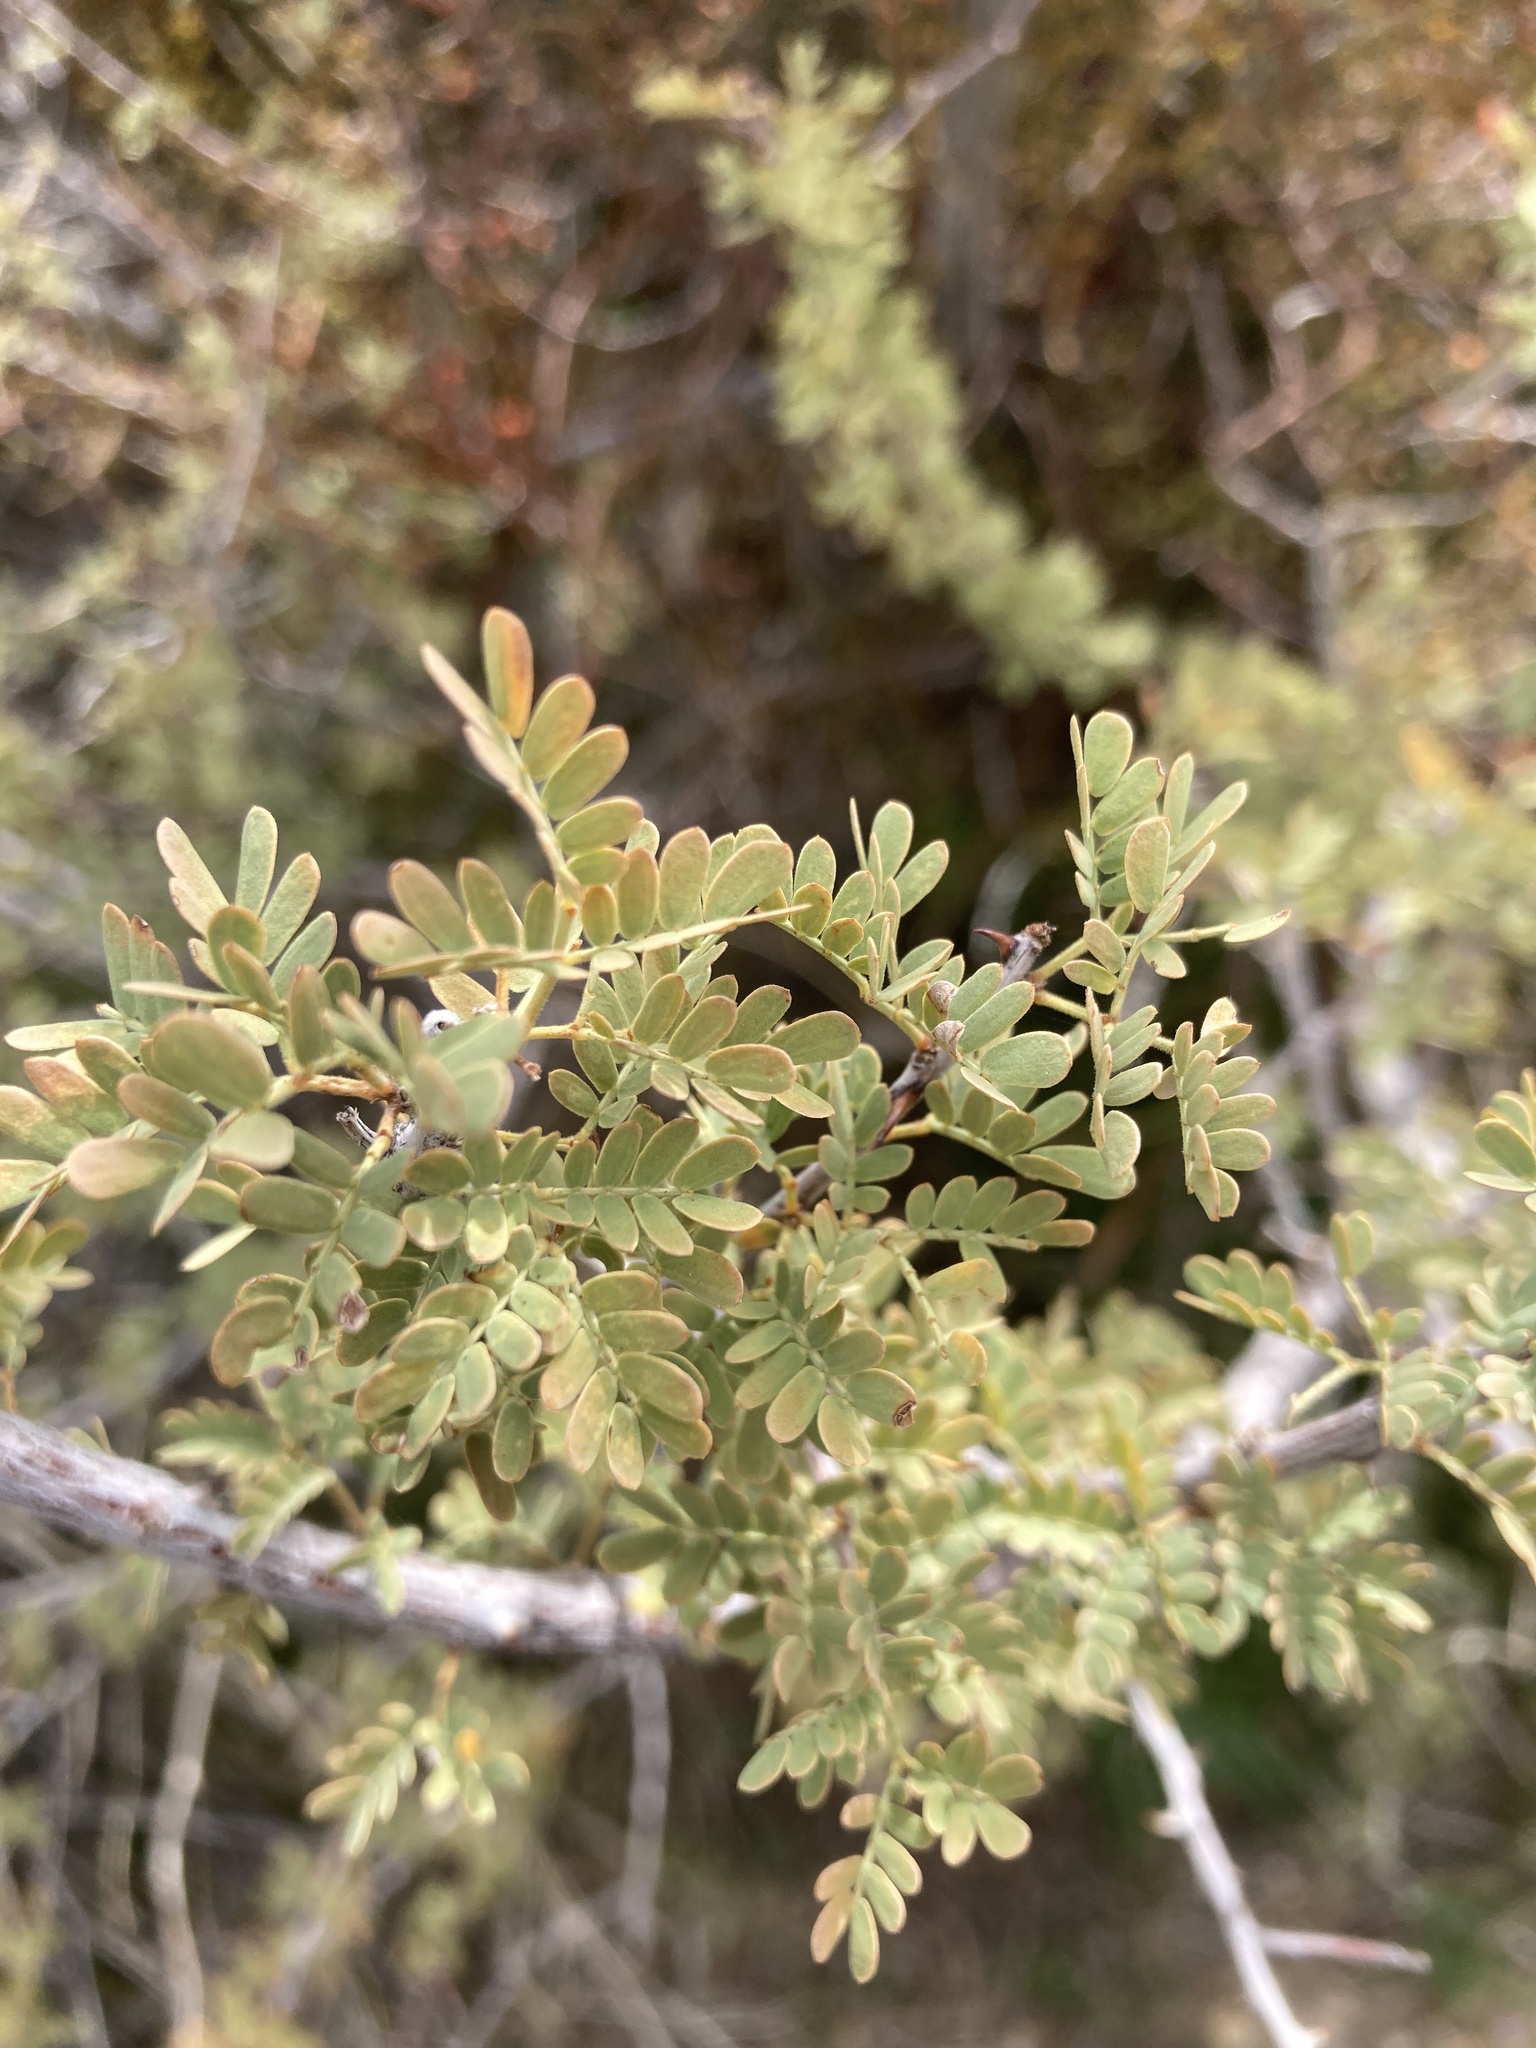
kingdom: Plantae
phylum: Tracheophyta
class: Magnoliopsida
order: Fabales
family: Fabaceae
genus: Senegalia
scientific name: Senegalia greggii
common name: Texas-mimosa
